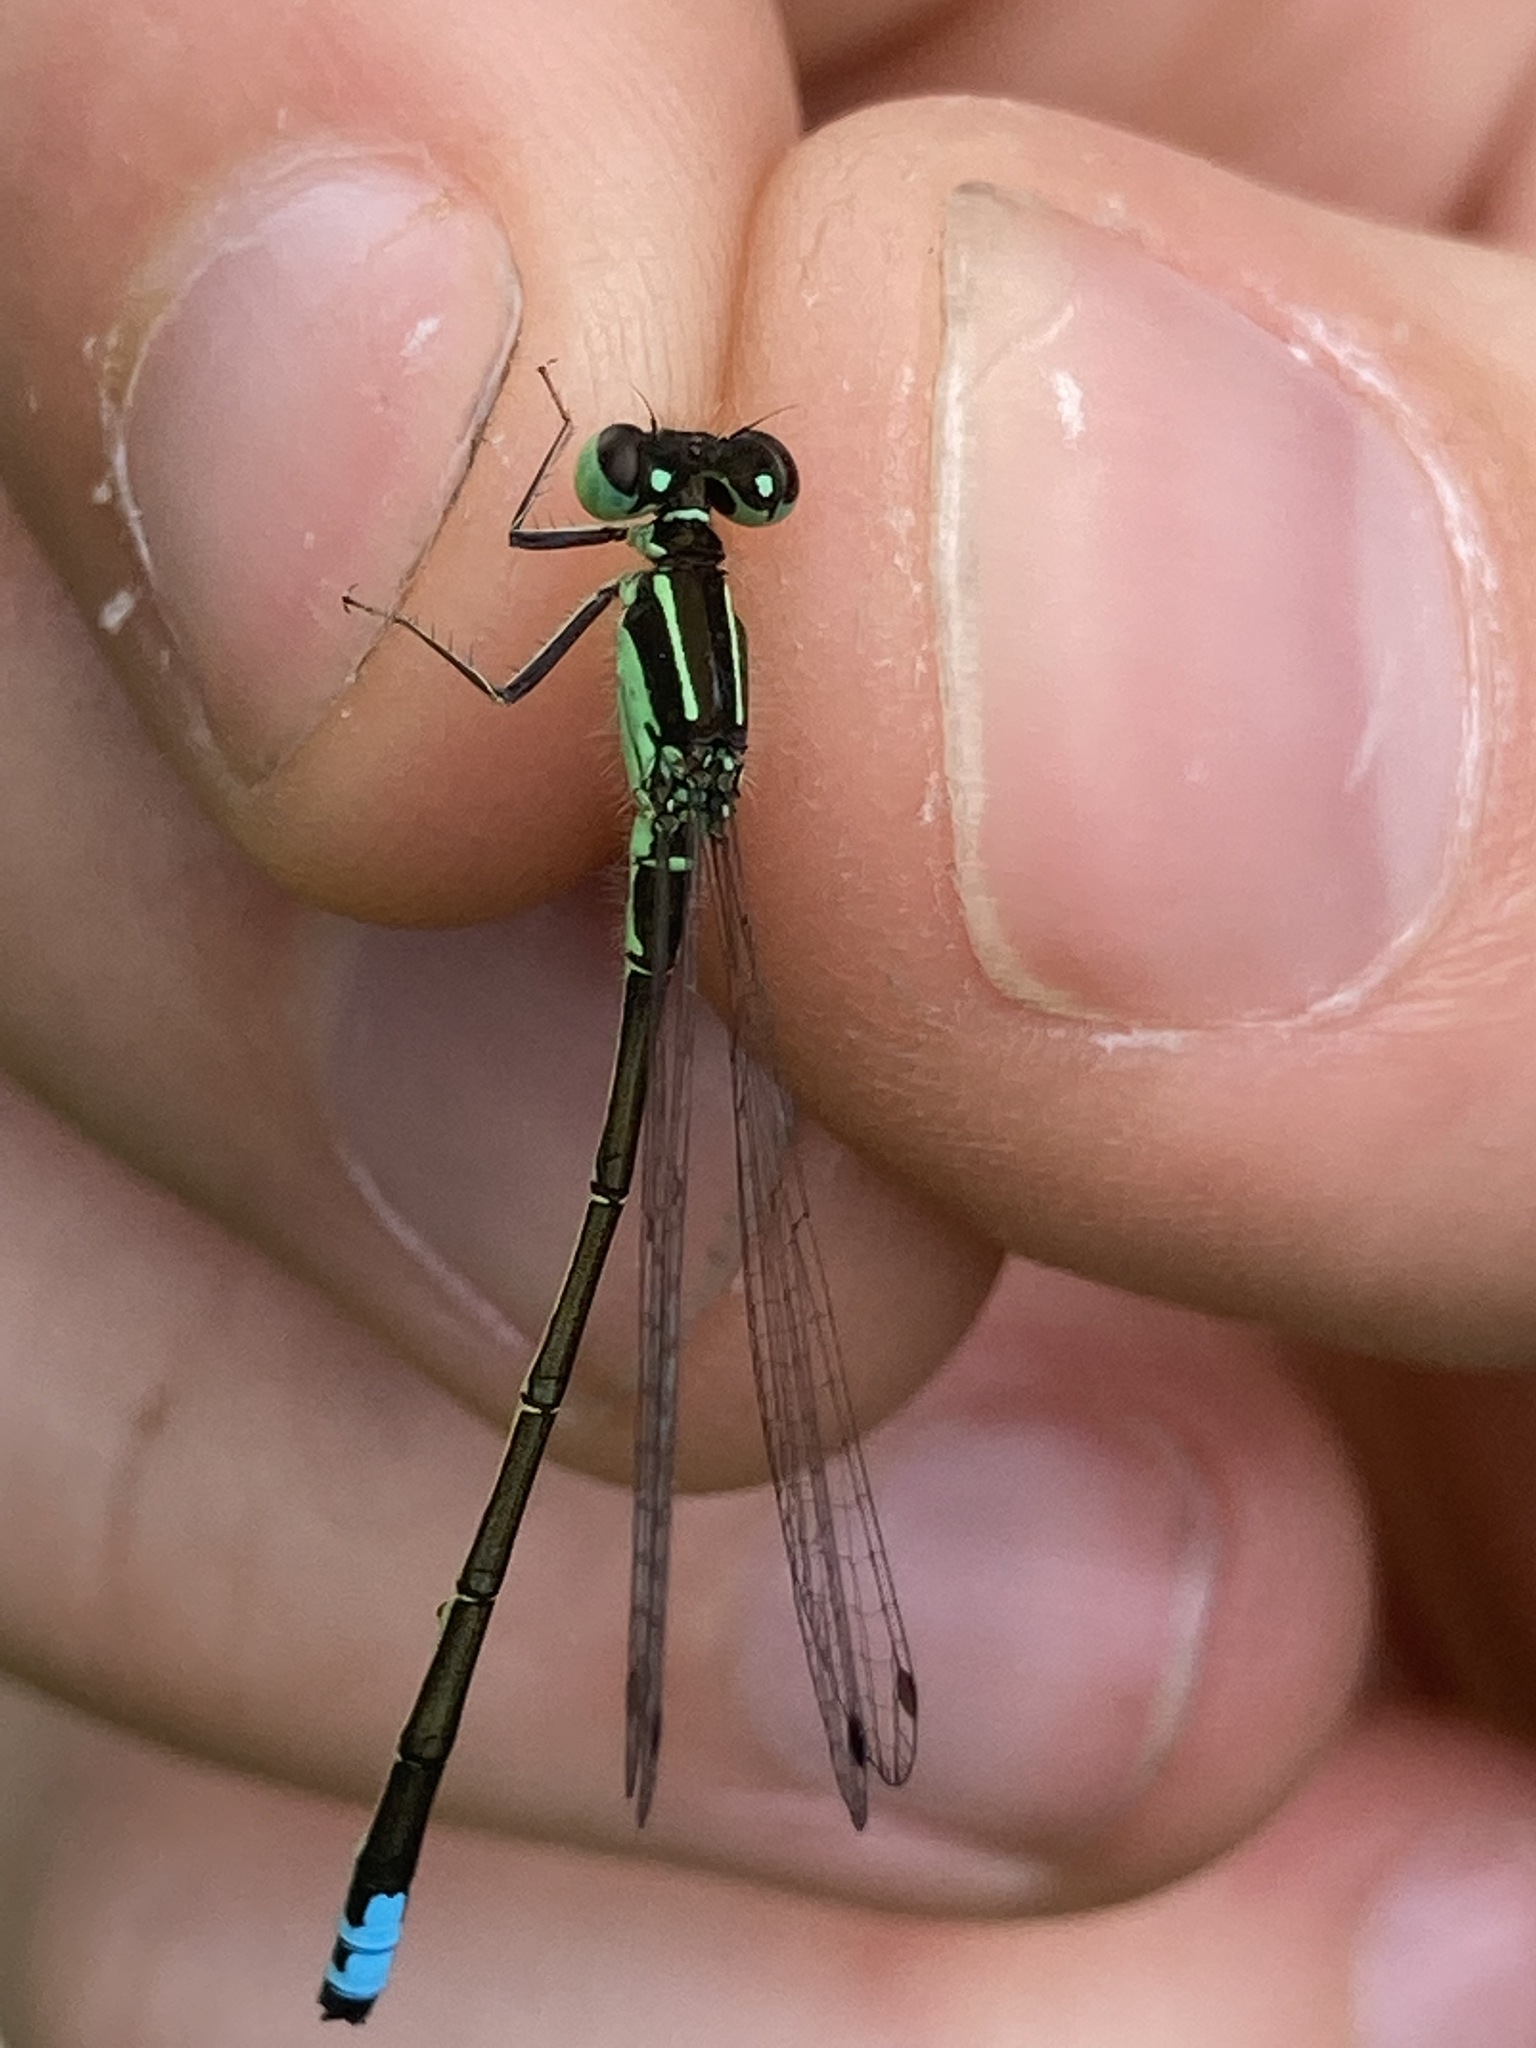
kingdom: Animalia
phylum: Arthropoda
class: Insecta
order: Odonata
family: Coenagrionidae
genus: Ischnura
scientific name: Ischnura verticalis
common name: Eastern forktail
